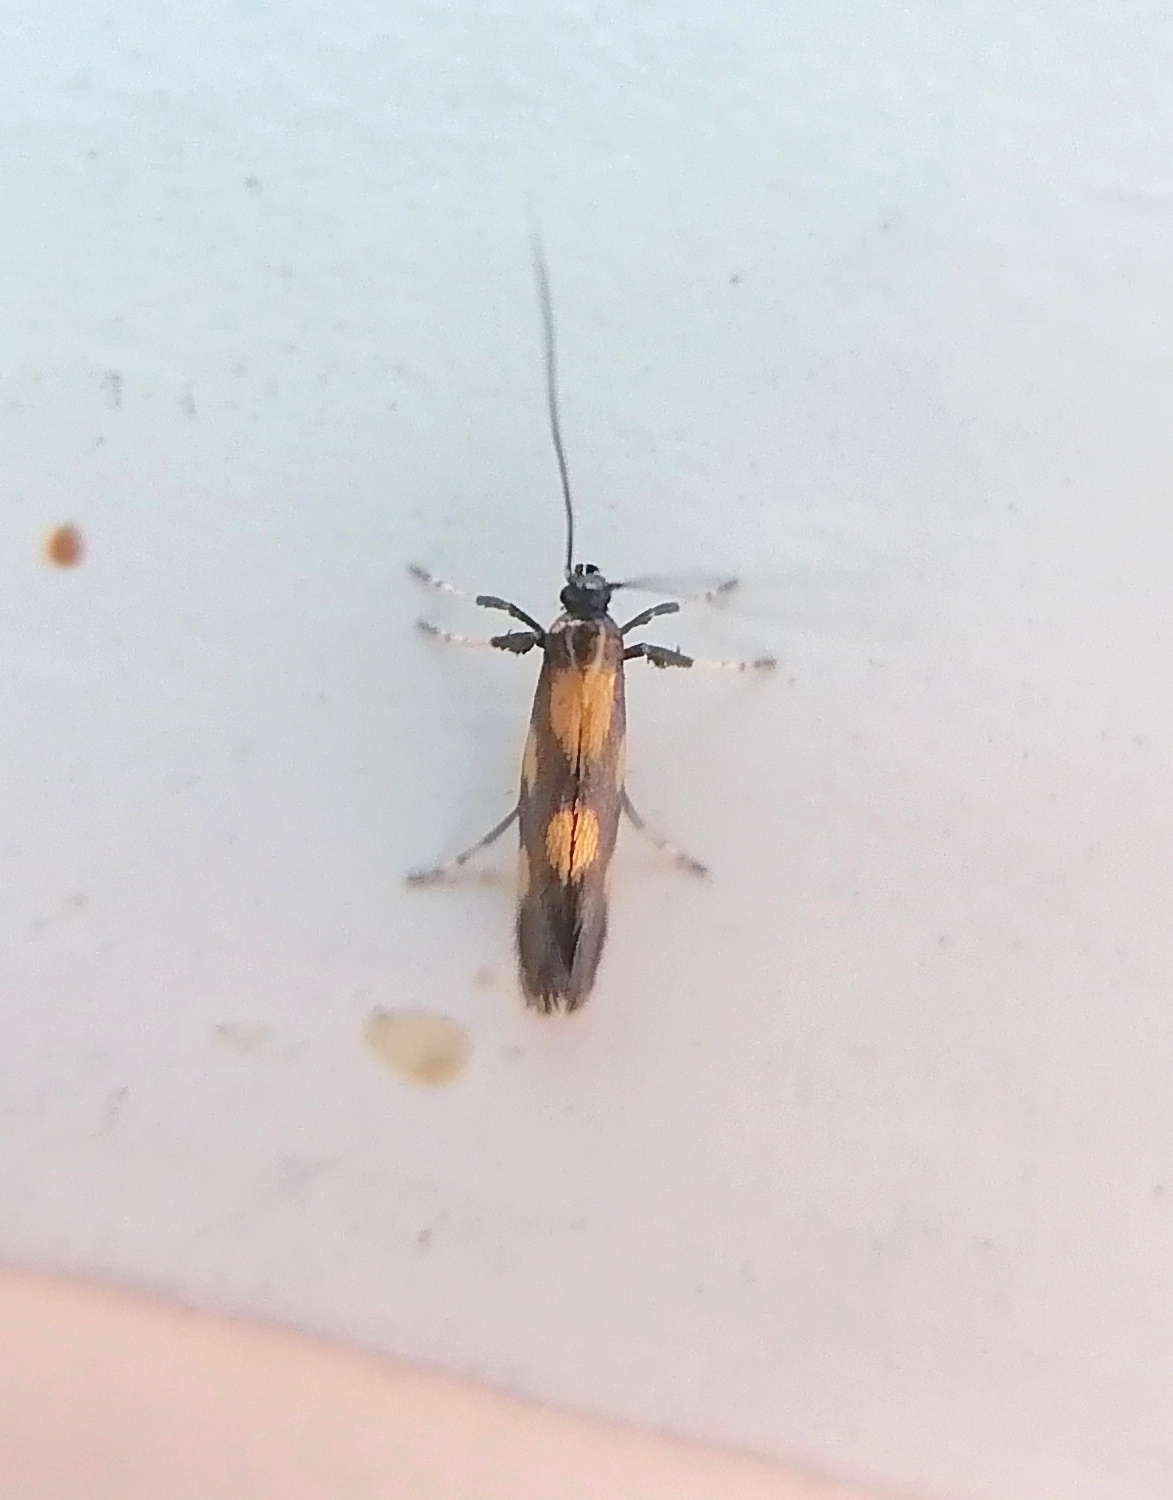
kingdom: Animalia
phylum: Arthropoda
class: Insecta
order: Lepidoptera
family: Gracillariidae
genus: Euspilapteryx
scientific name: Euspilapteryx auroguttella
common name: Gold-dot slender
